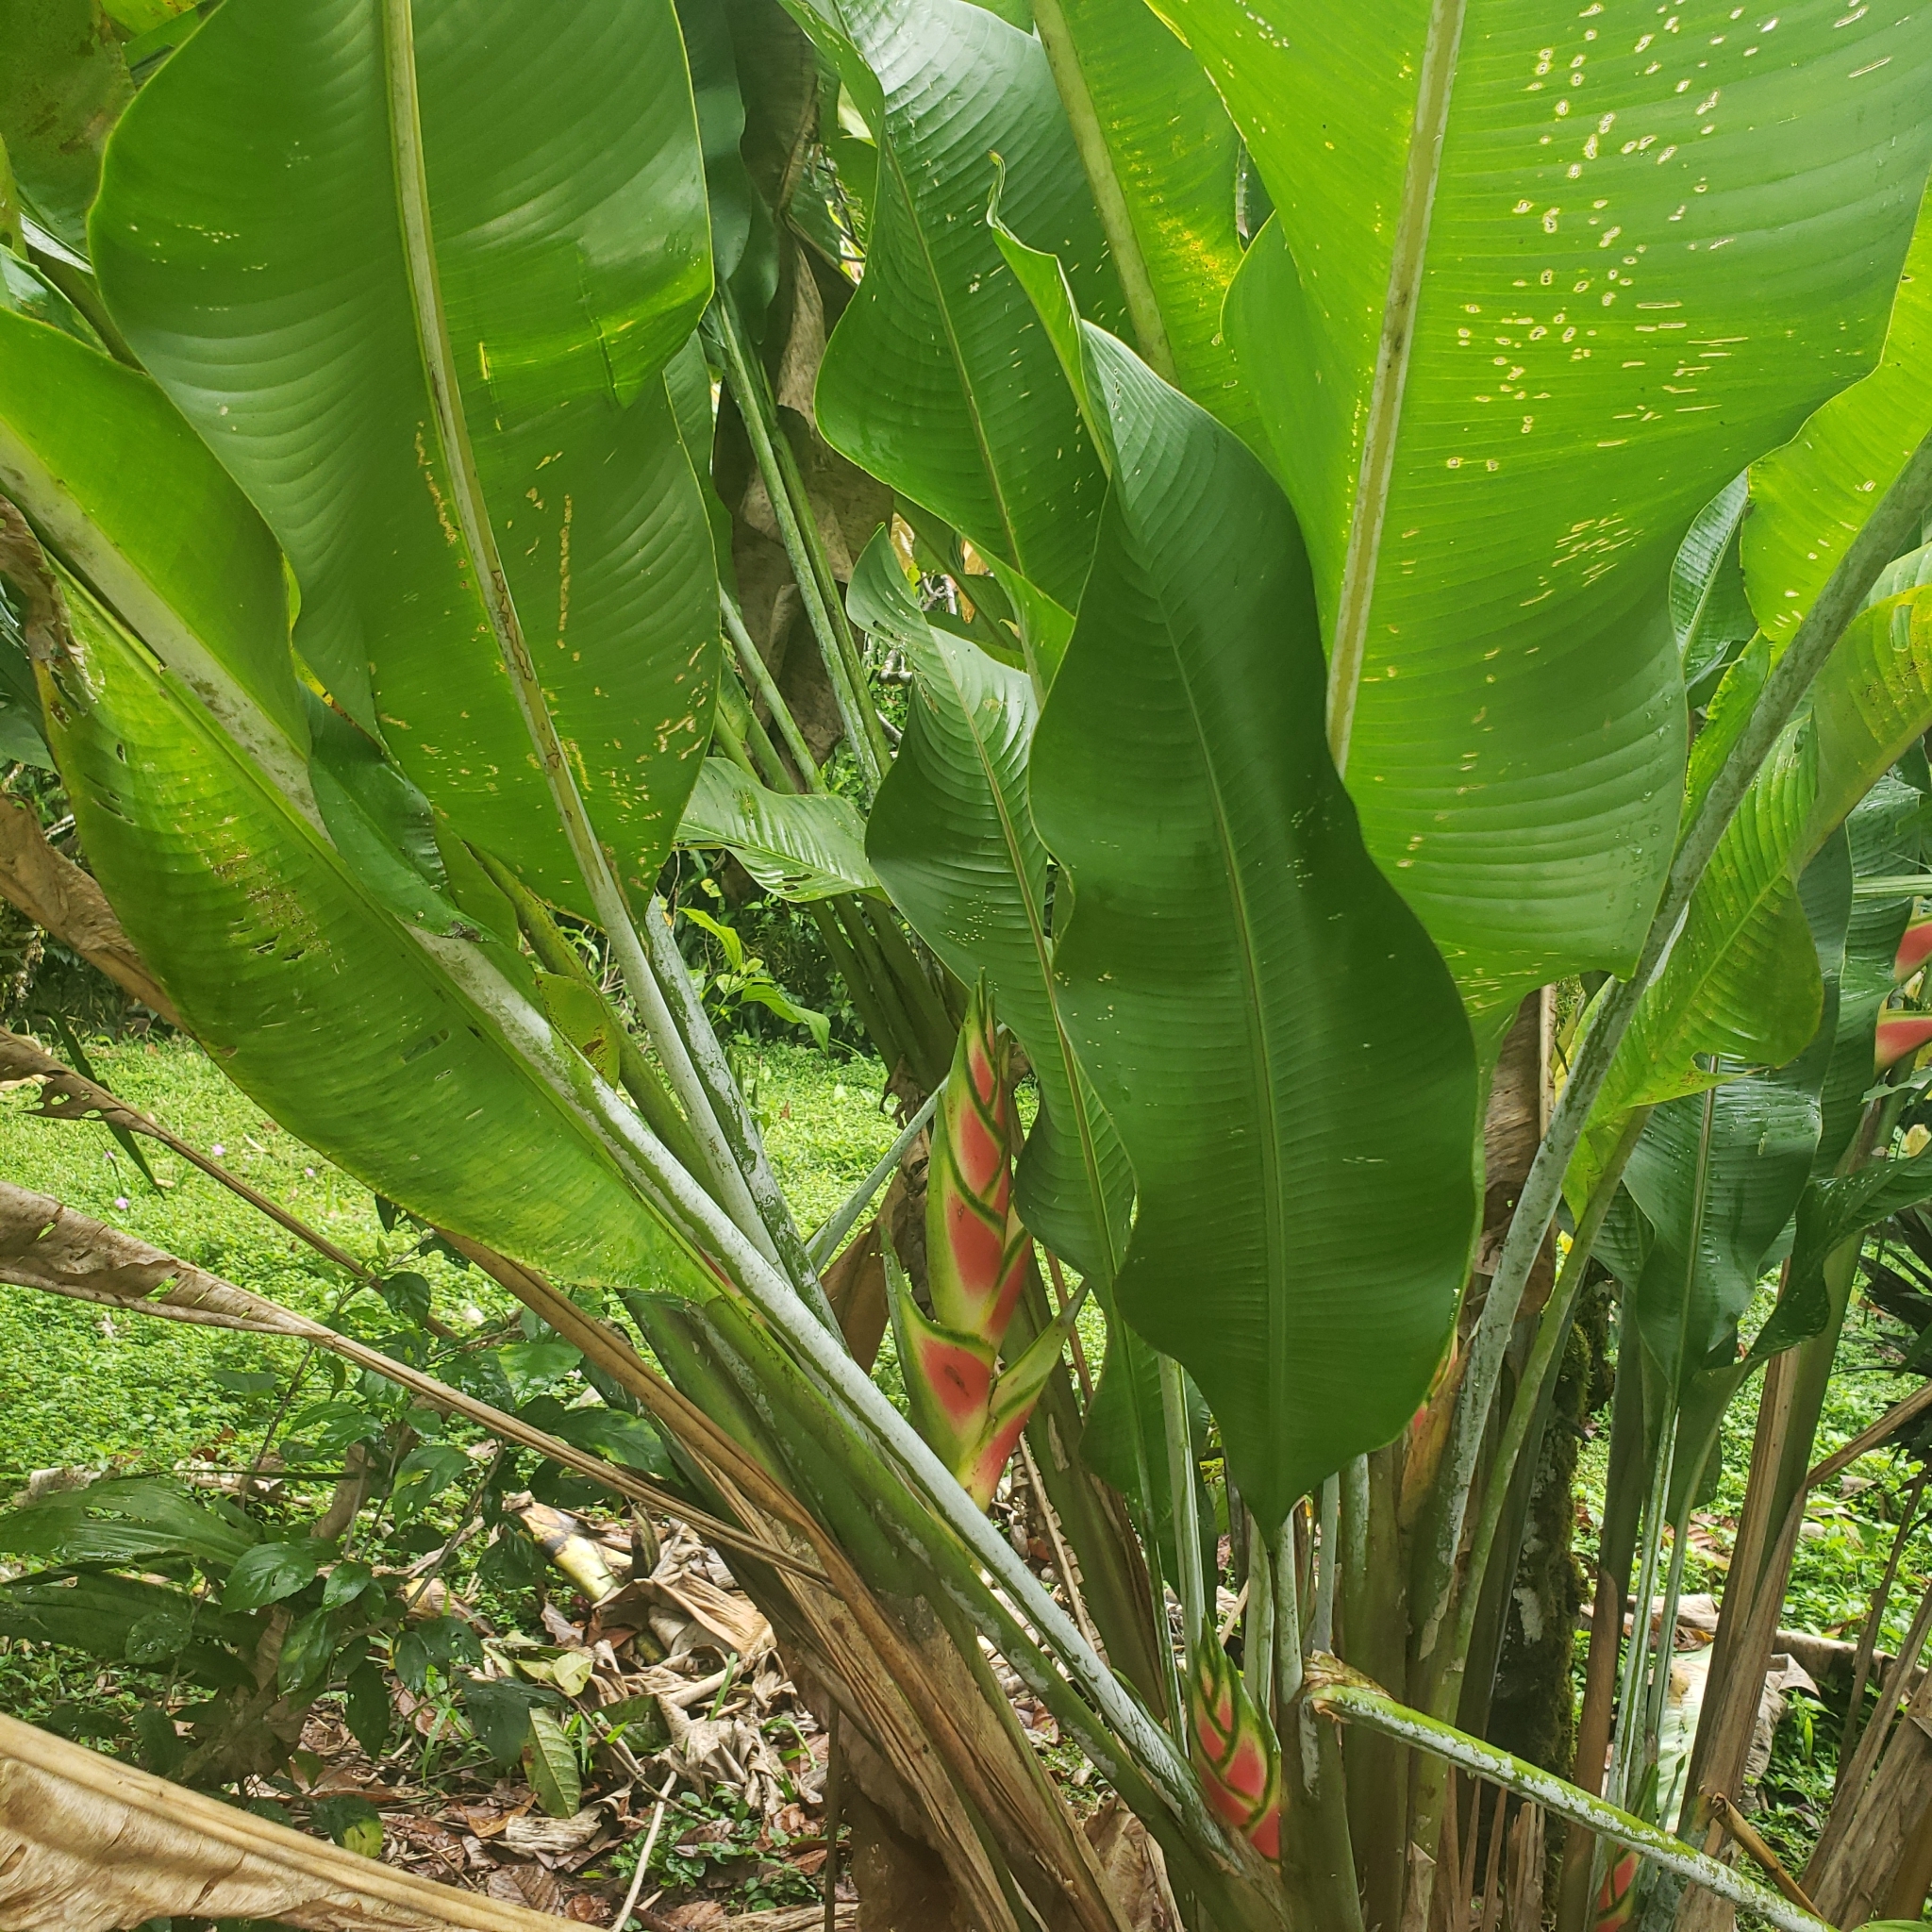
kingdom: Plantae
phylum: Tracheophyta
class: Liliopsida
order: Zingiberales
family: Heliconiaceae
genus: Heliconia
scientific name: Heliconia wagneriana
